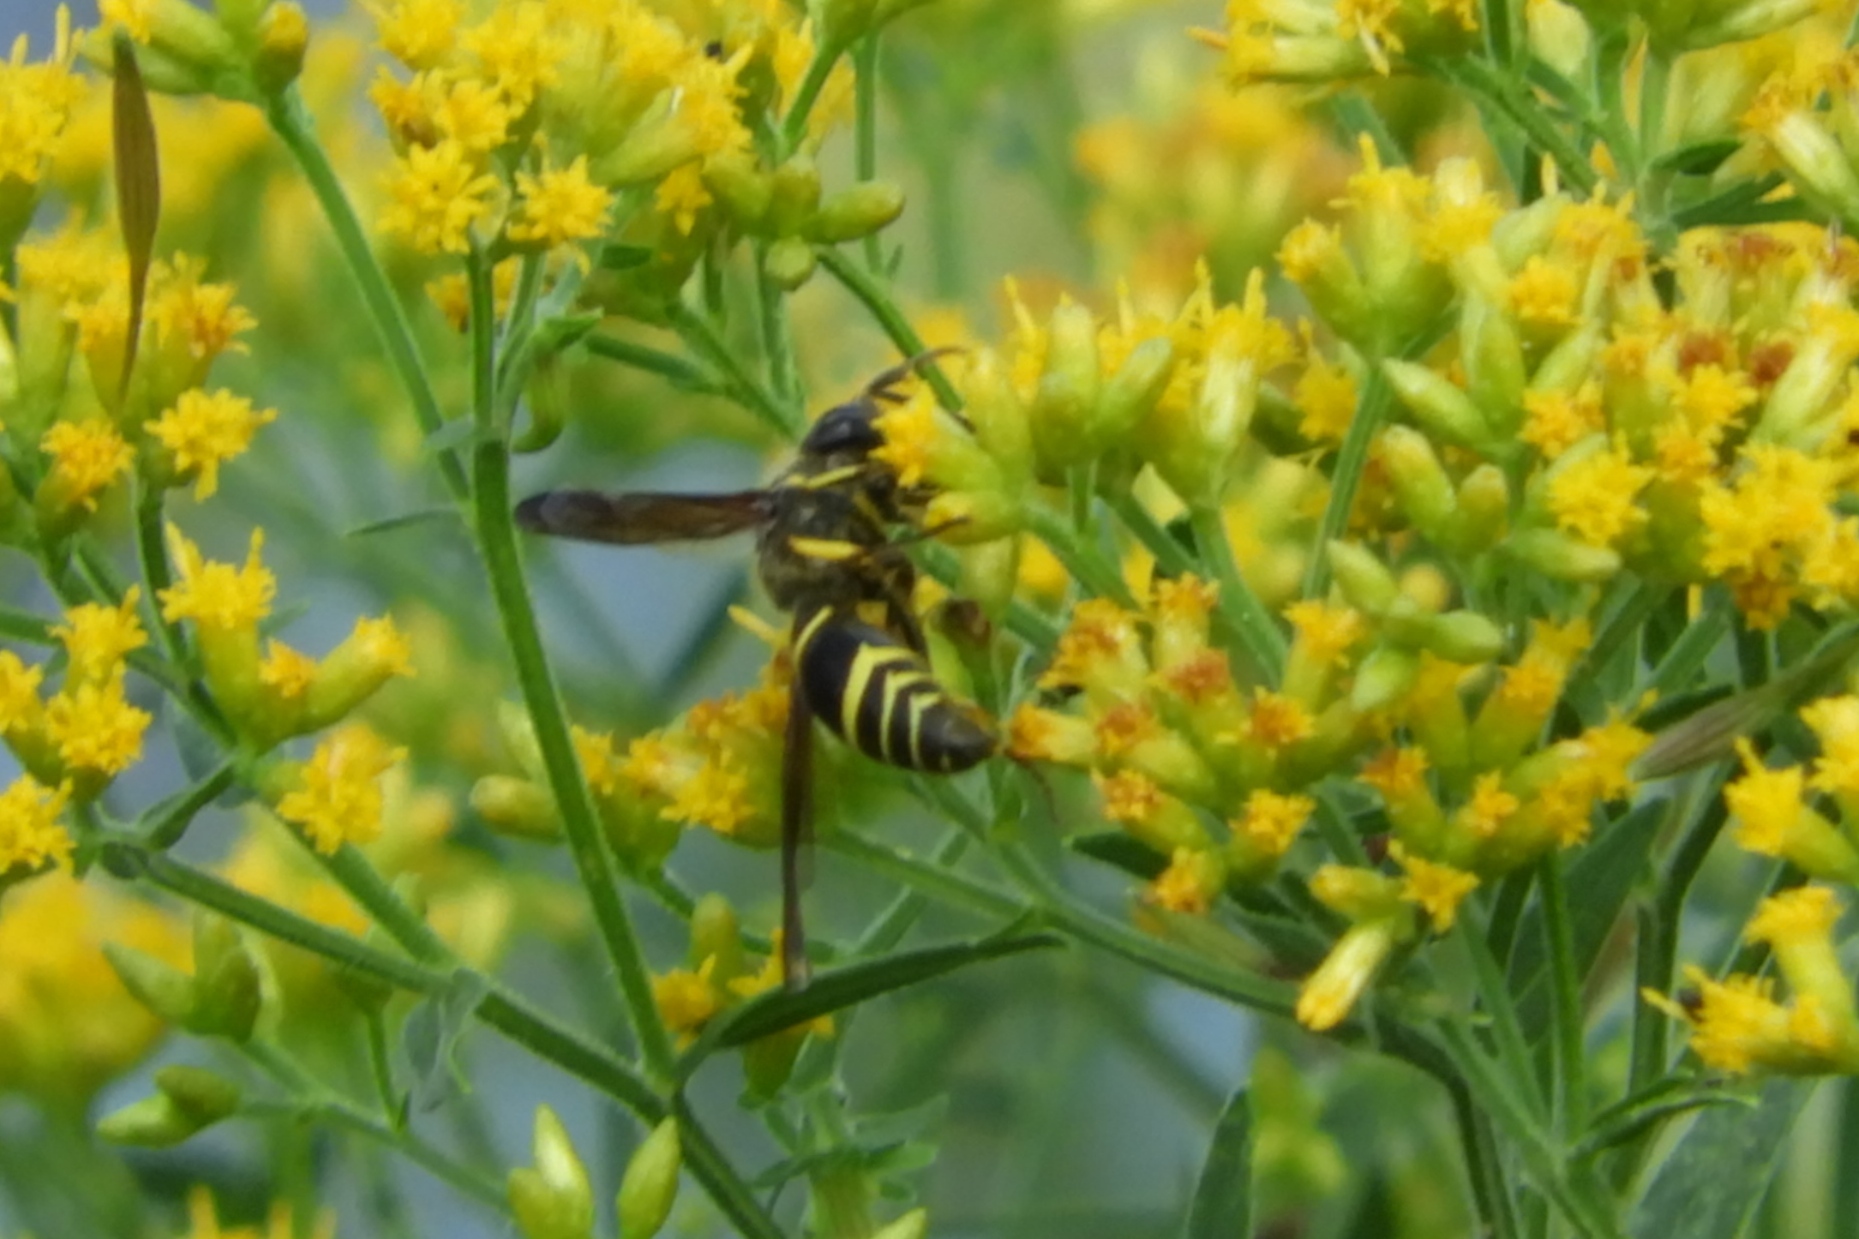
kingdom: Animalia
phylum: Arthropoda
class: Insecta
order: Hymenoptera
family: Vespidae
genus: Ancistrocerus
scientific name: Ancistrocerus
